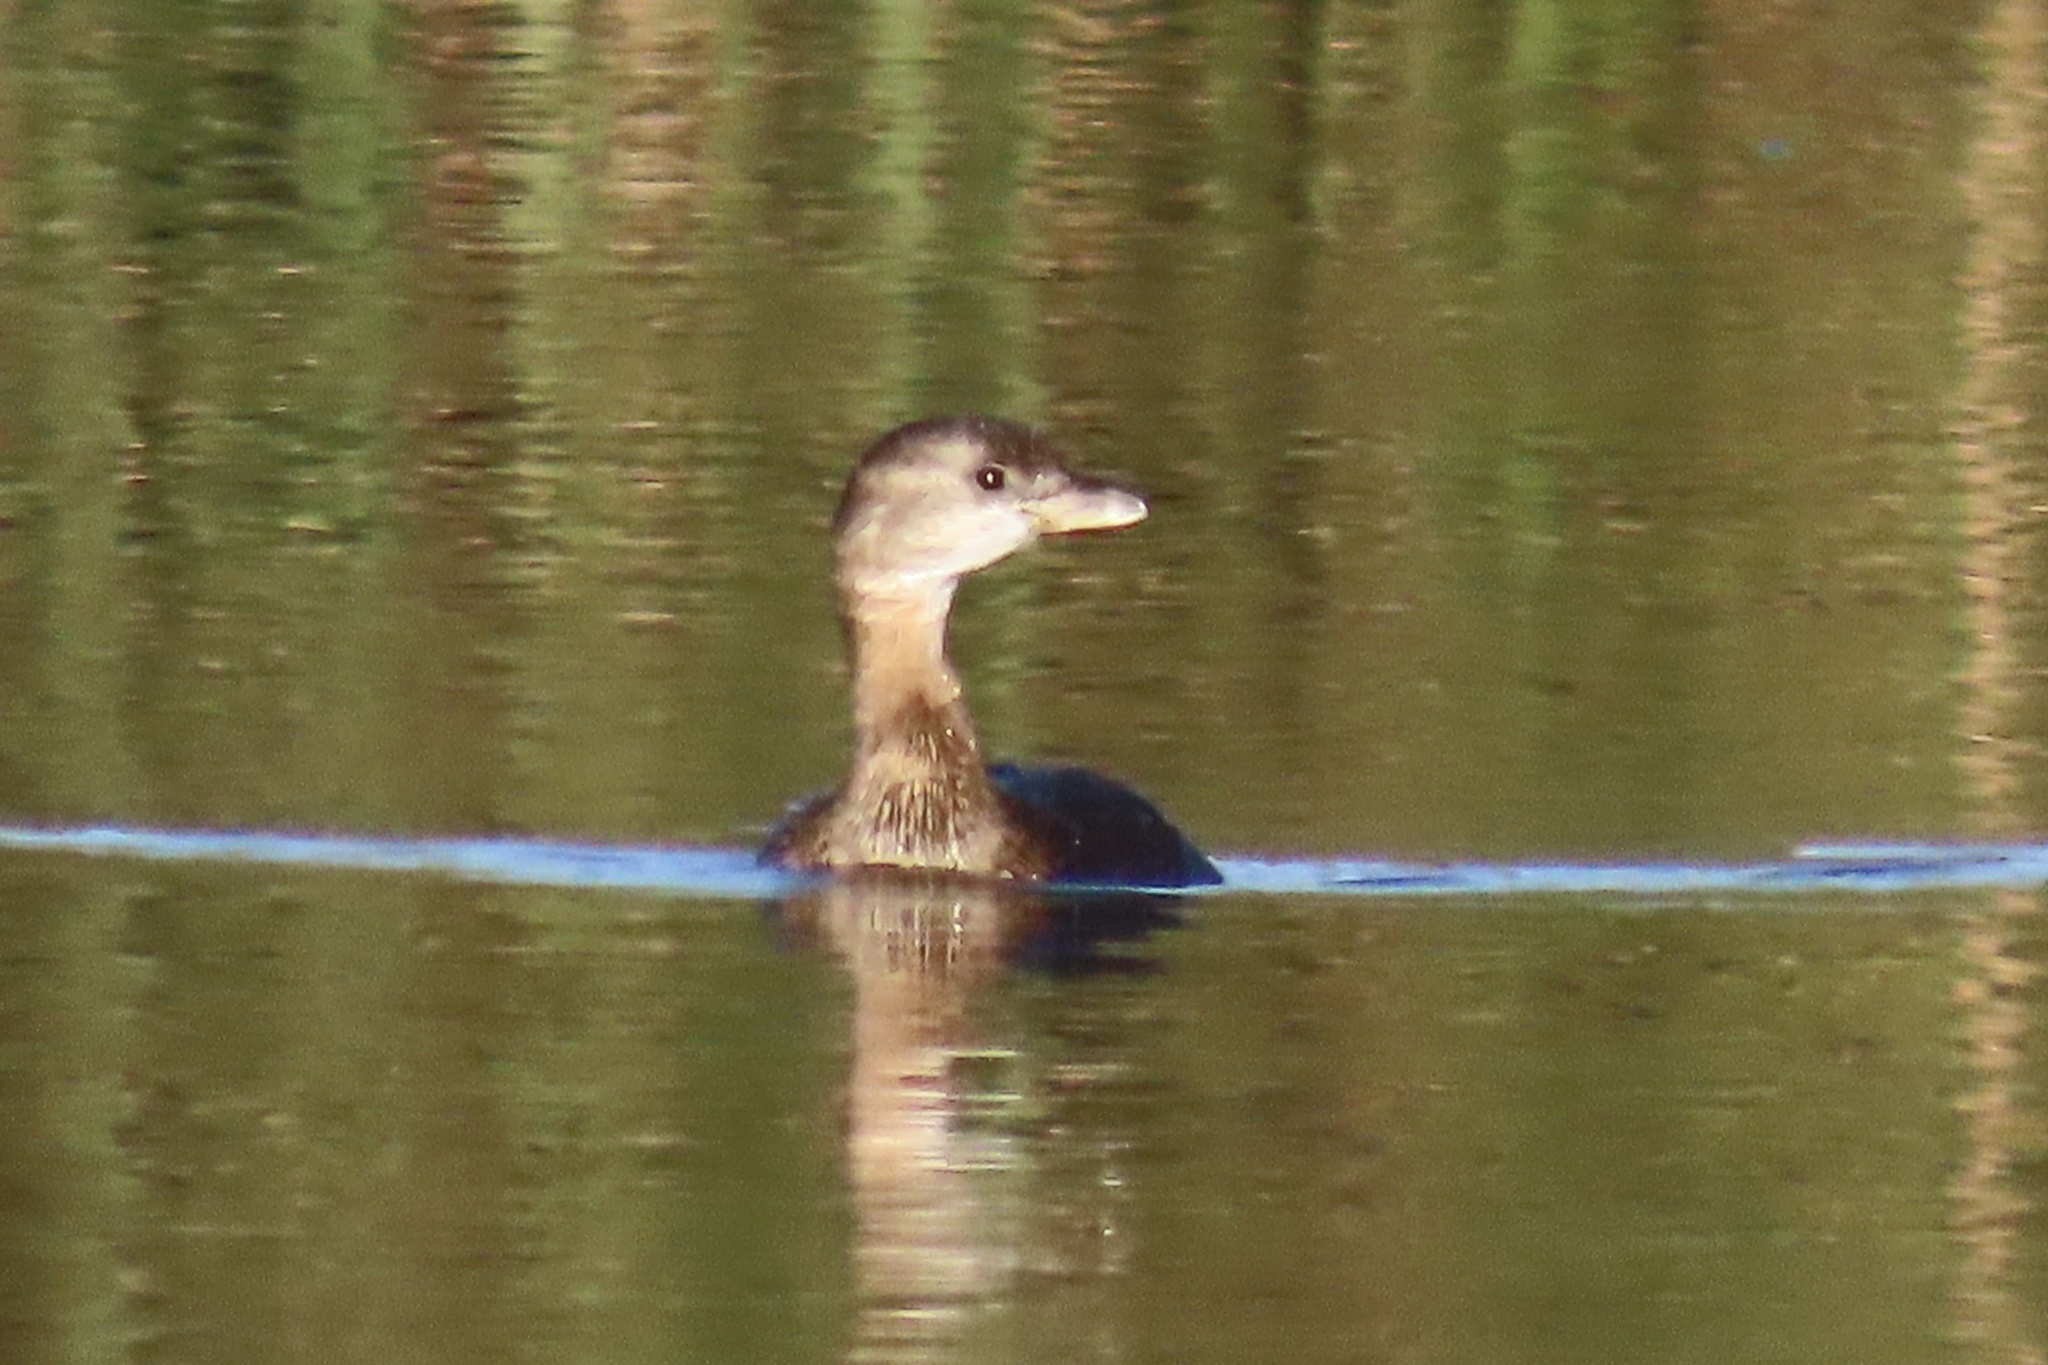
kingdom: Animalia
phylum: Chordata
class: Aves
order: Podicipediformes
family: Podicipedidae
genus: Podilymbus
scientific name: Podilymbus podiceps
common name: Pied-billed grebe
